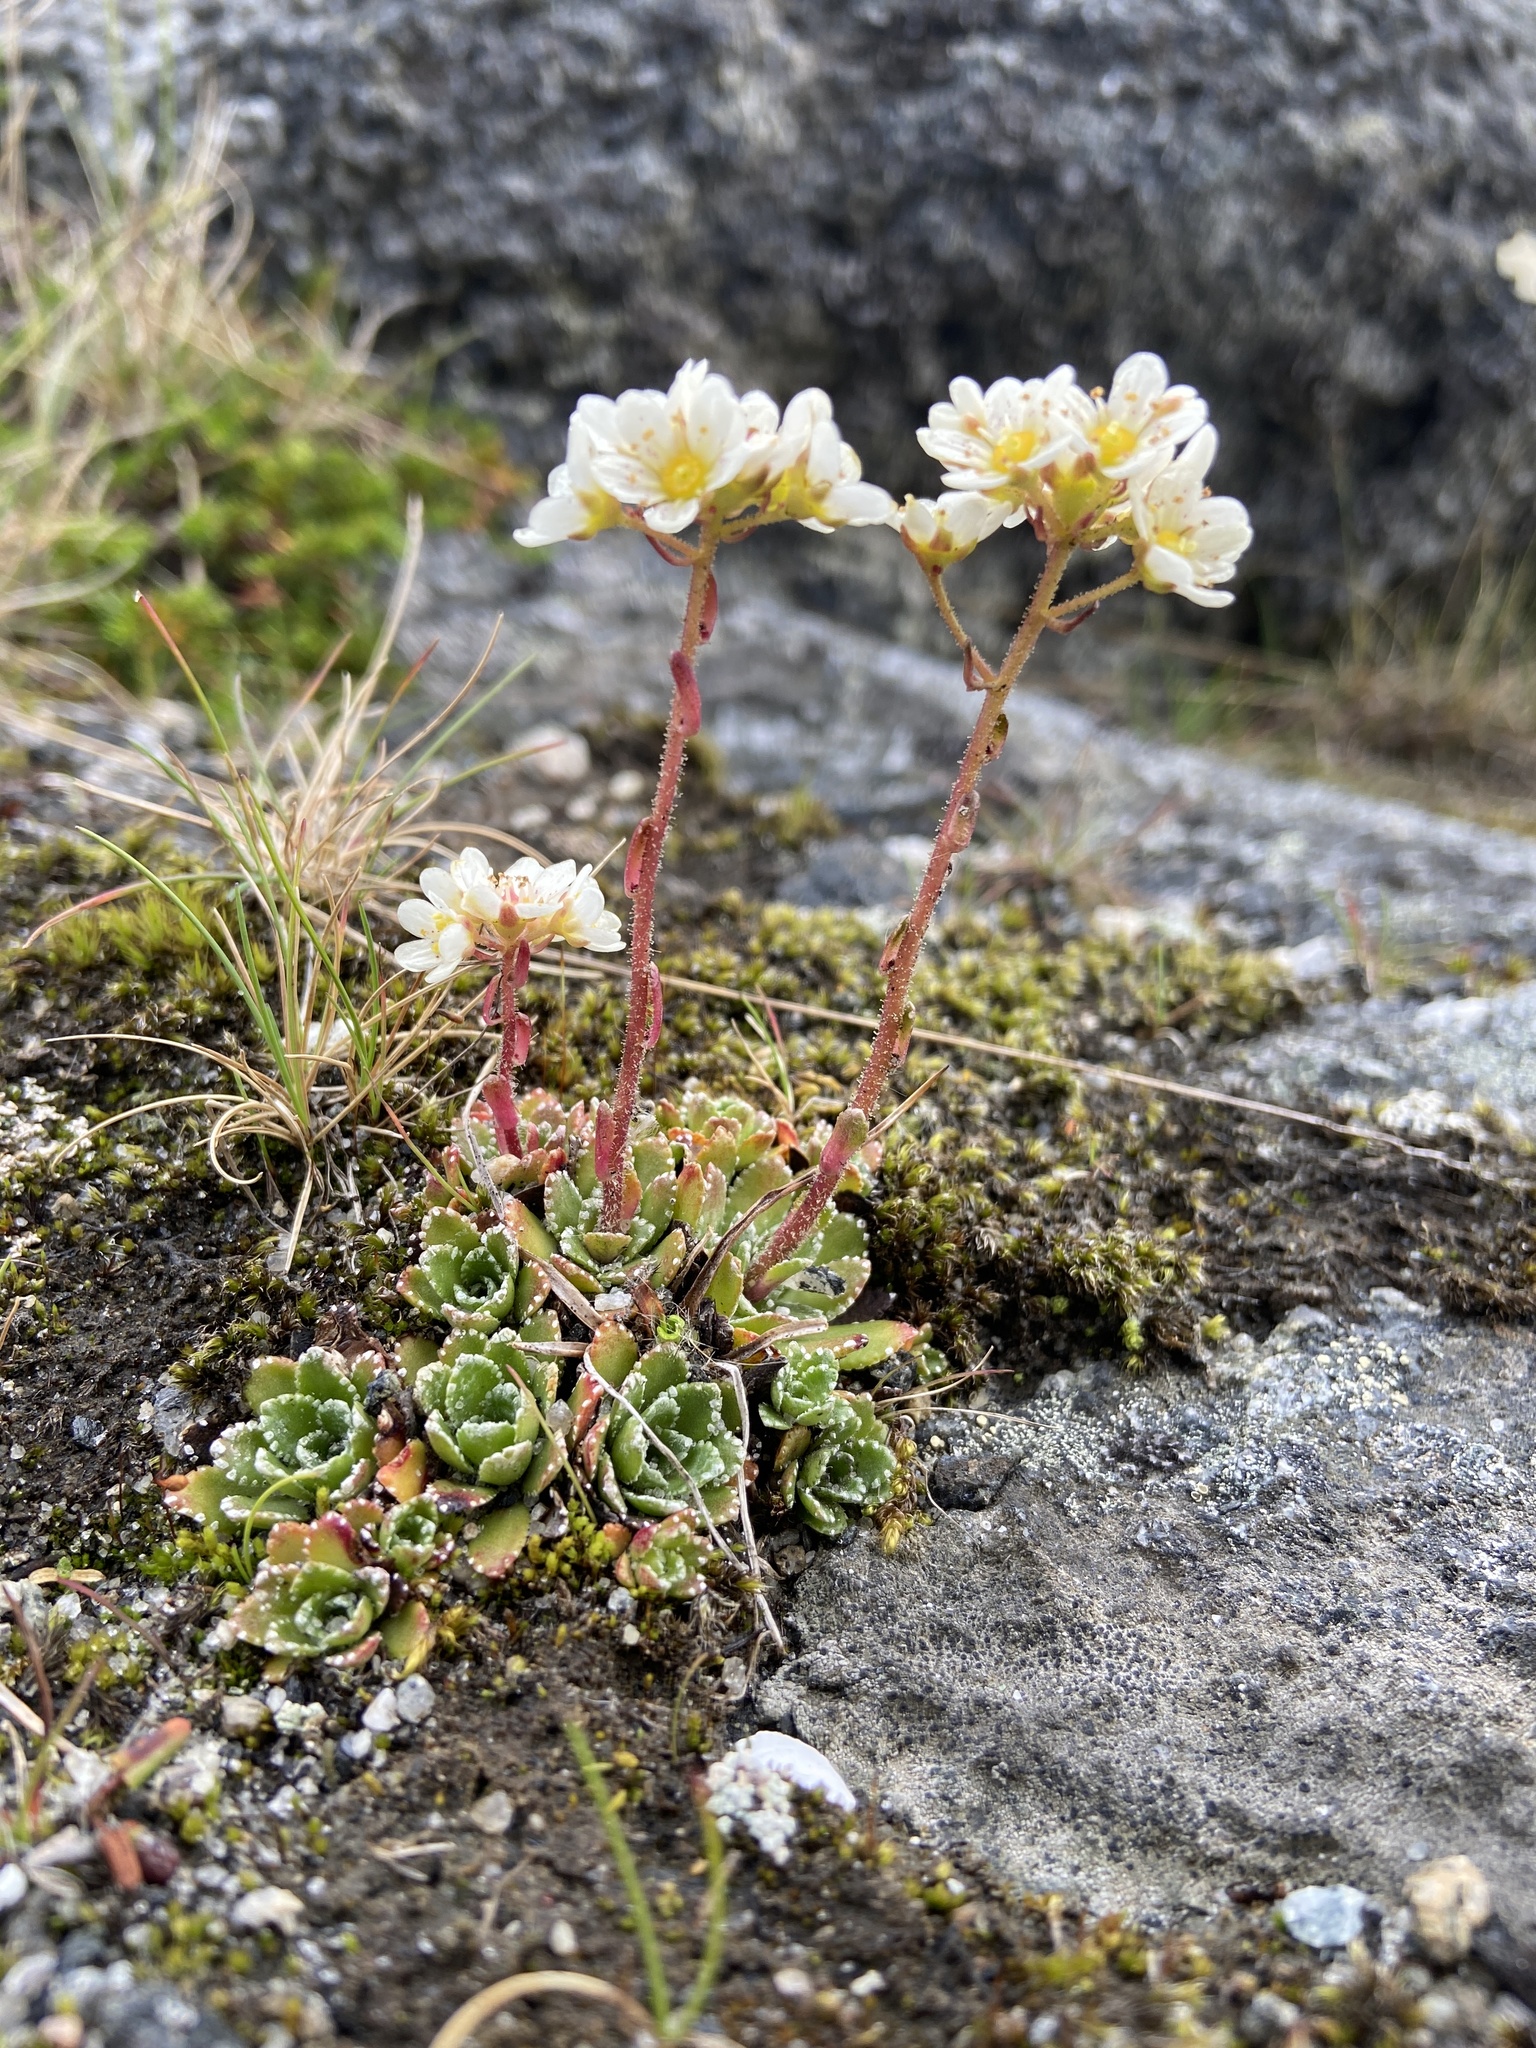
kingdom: Plantae
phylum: Tracheophyta
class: Magnoliopsida
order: Saxifragales
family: Saxifragaceae
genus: Saxifraga
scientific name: Saxifraga paniculata
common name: Livelong saxifrage
